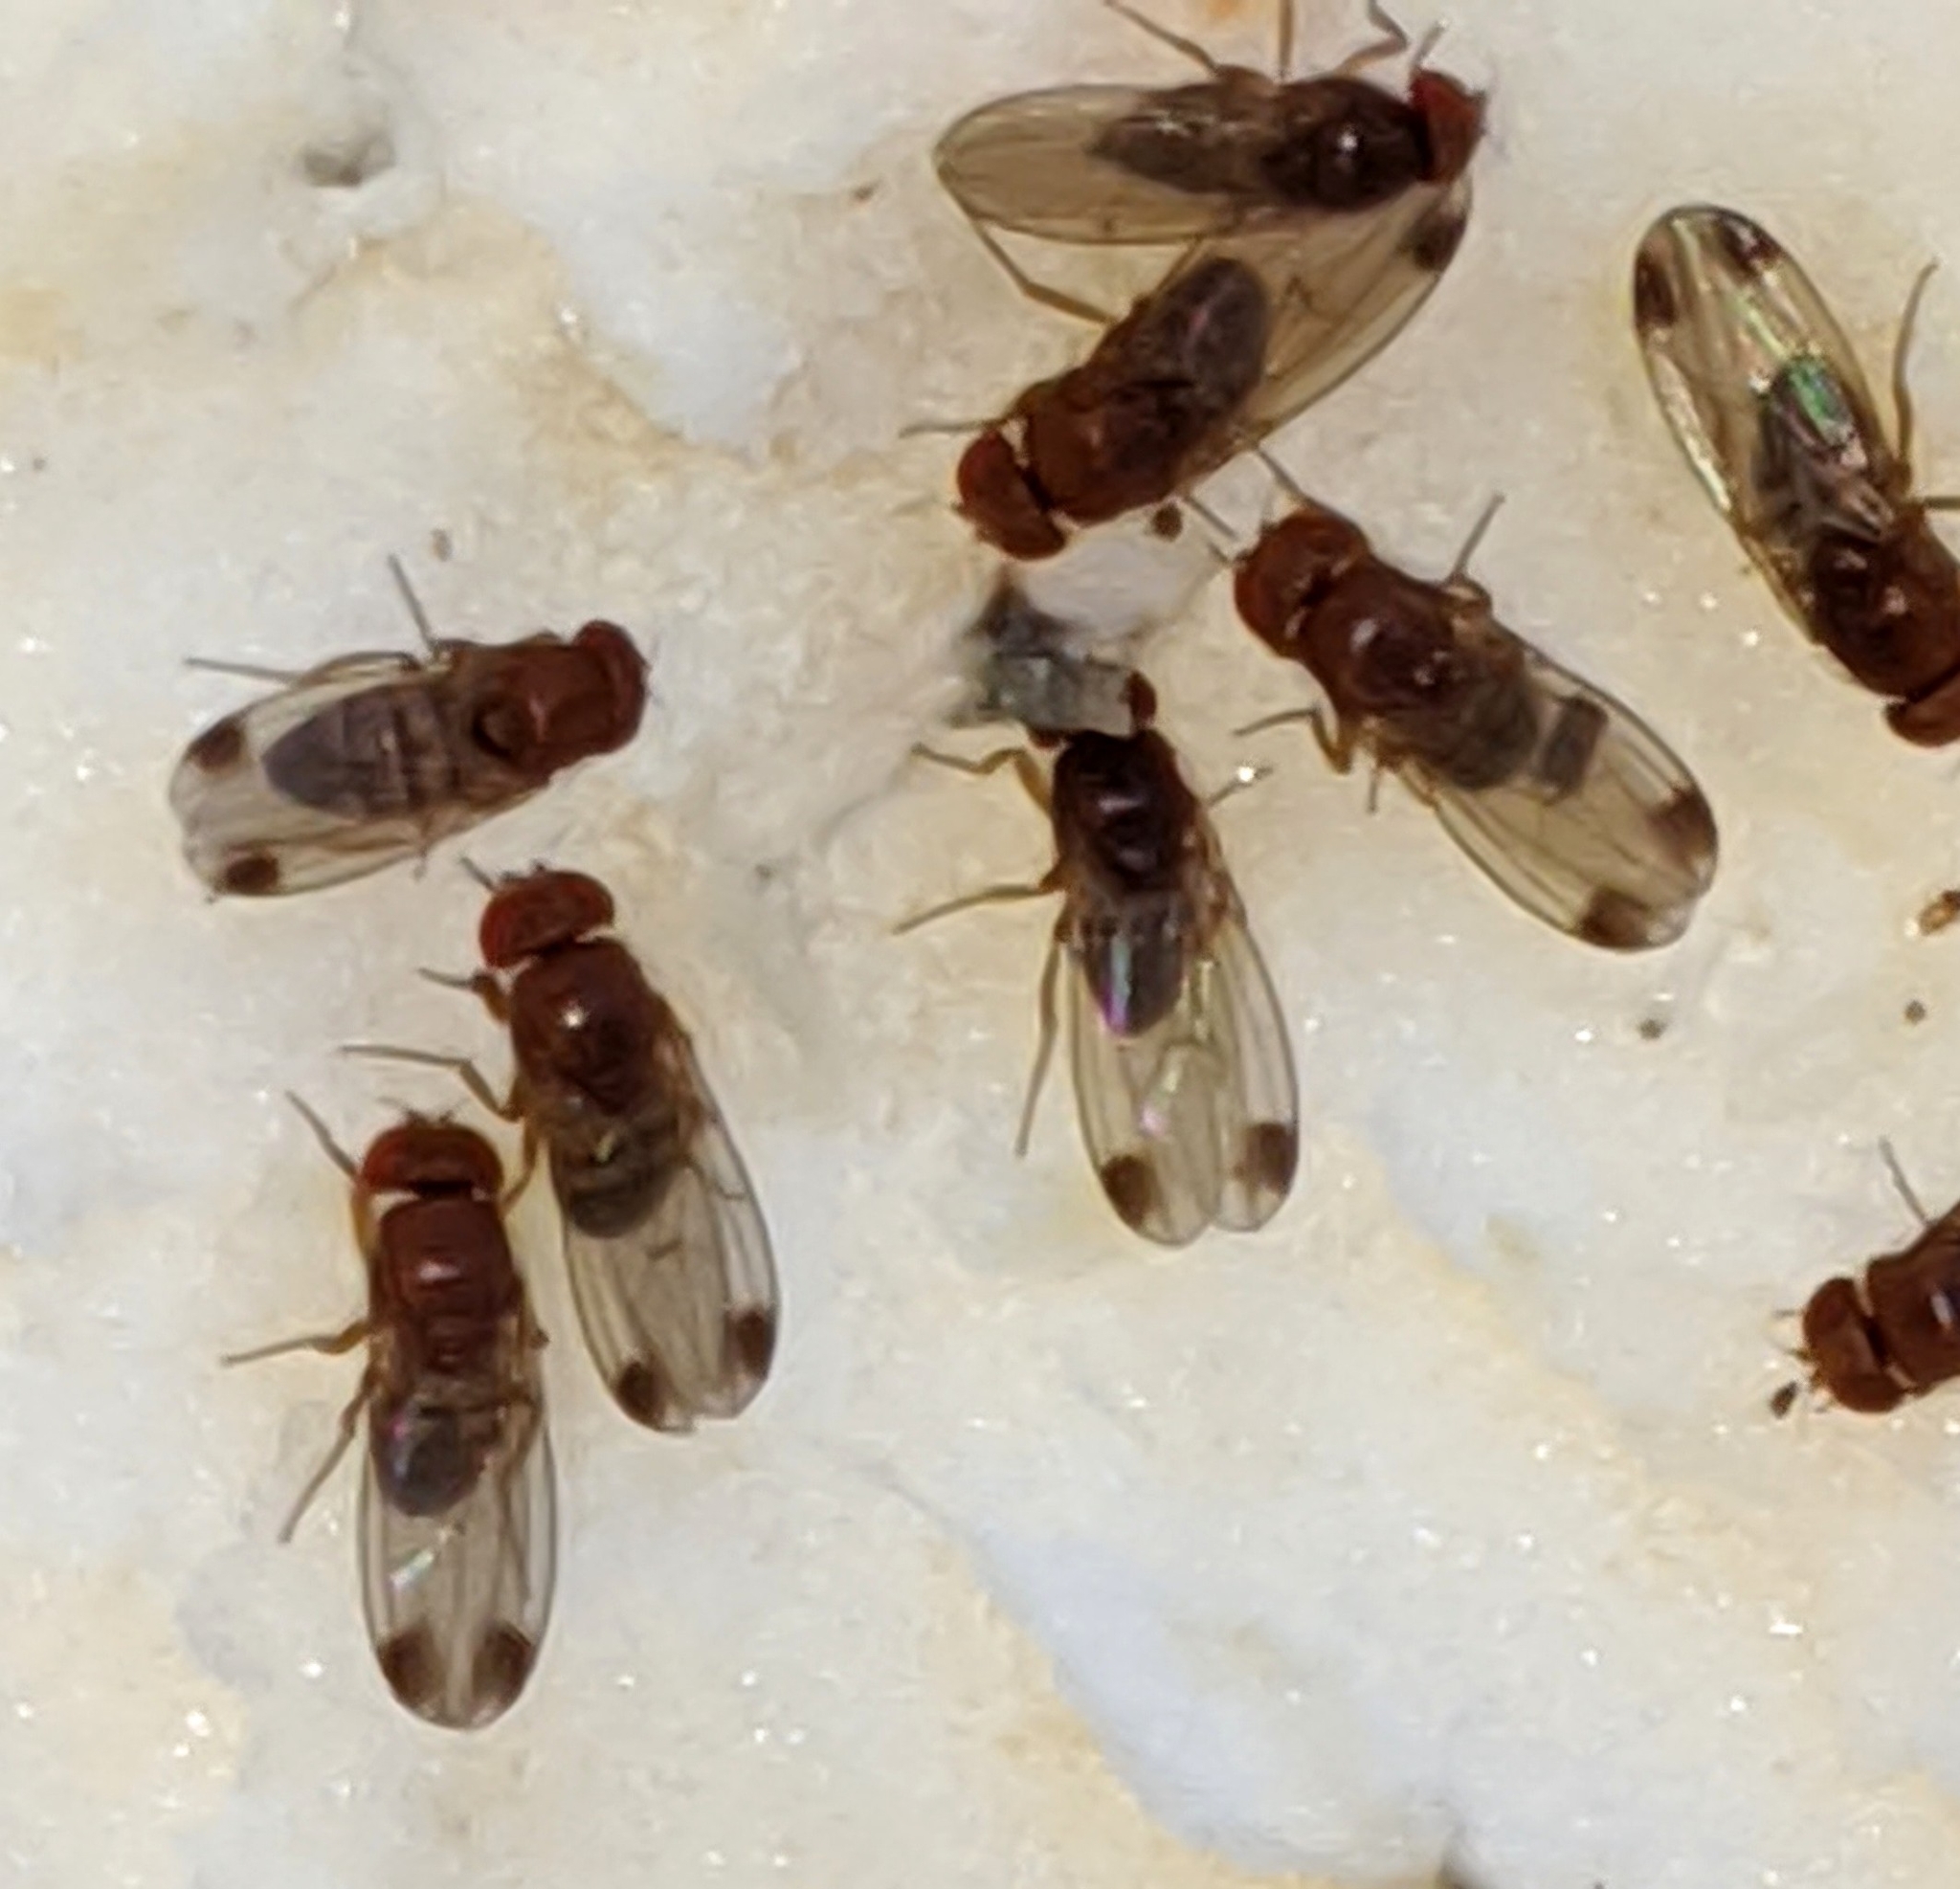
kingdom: Animalia
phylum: Arthropoda
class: Insecta
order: Diptera
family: Drosophilidae
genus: Drosophila
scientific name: Drosophila suzukii
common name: Spotted-wing drosophila
